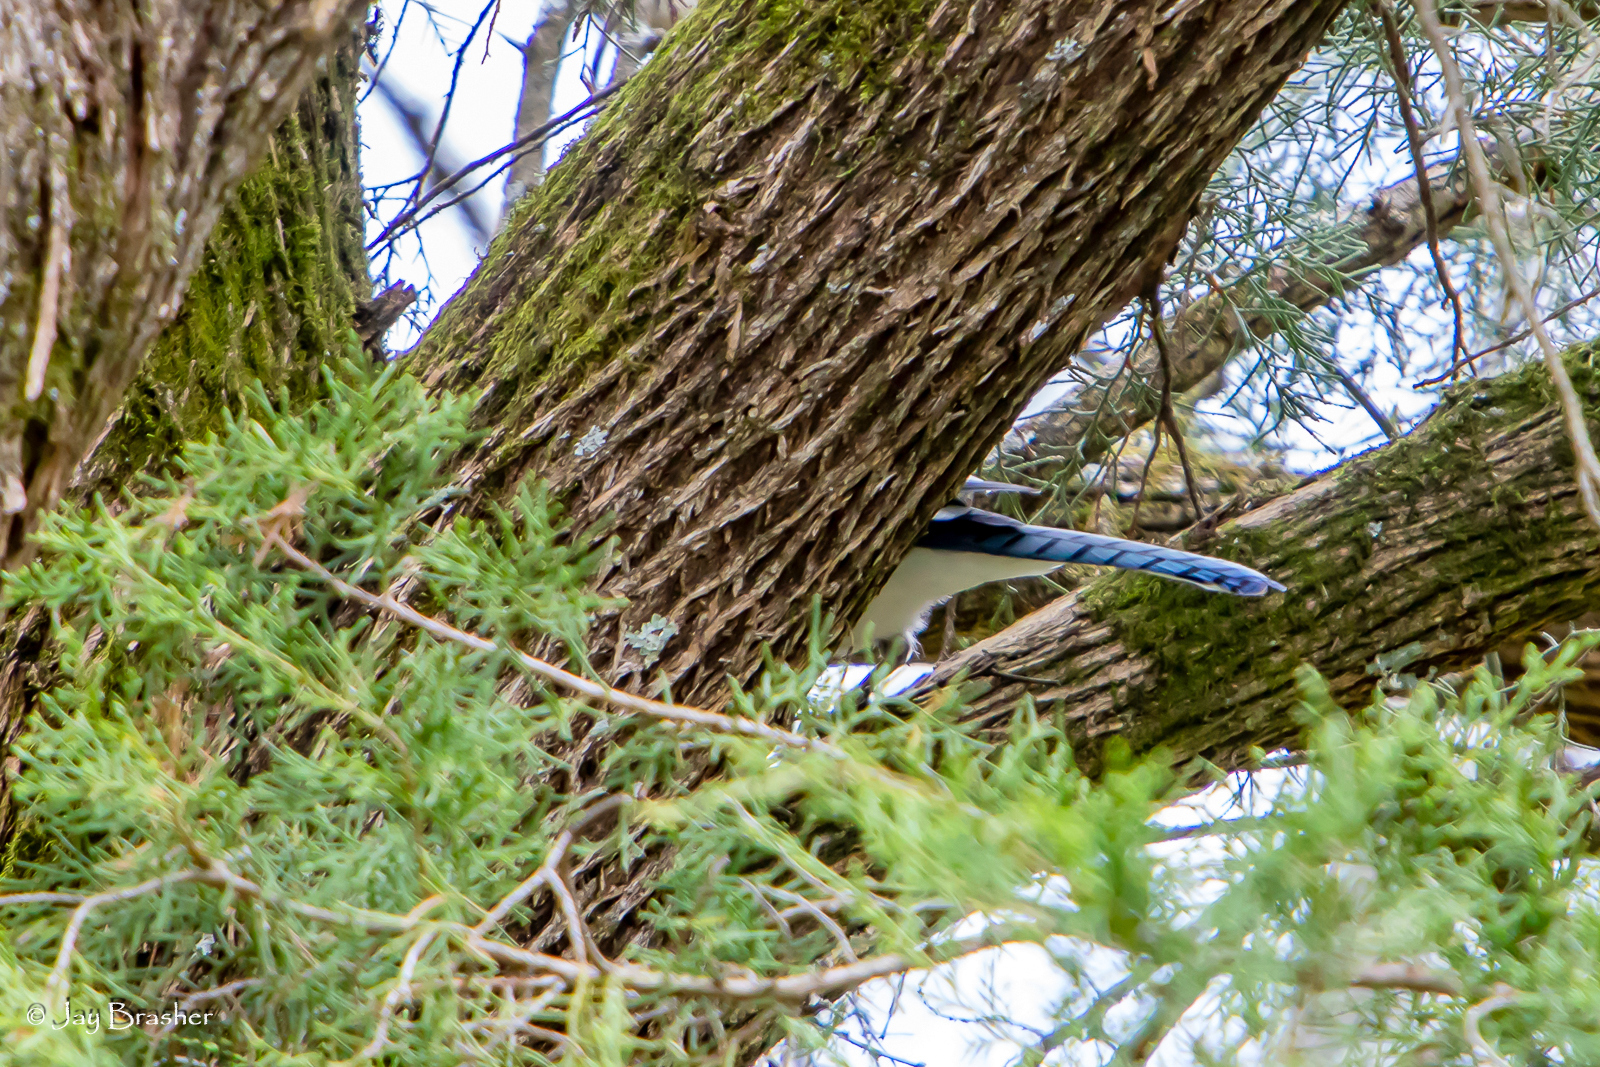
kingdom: Animalia
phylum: Chordata
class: Aves
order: Passeriformes
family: Corvidae
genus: Cyanocitta
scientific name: Cyanocitta cristata
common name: Blue jay
